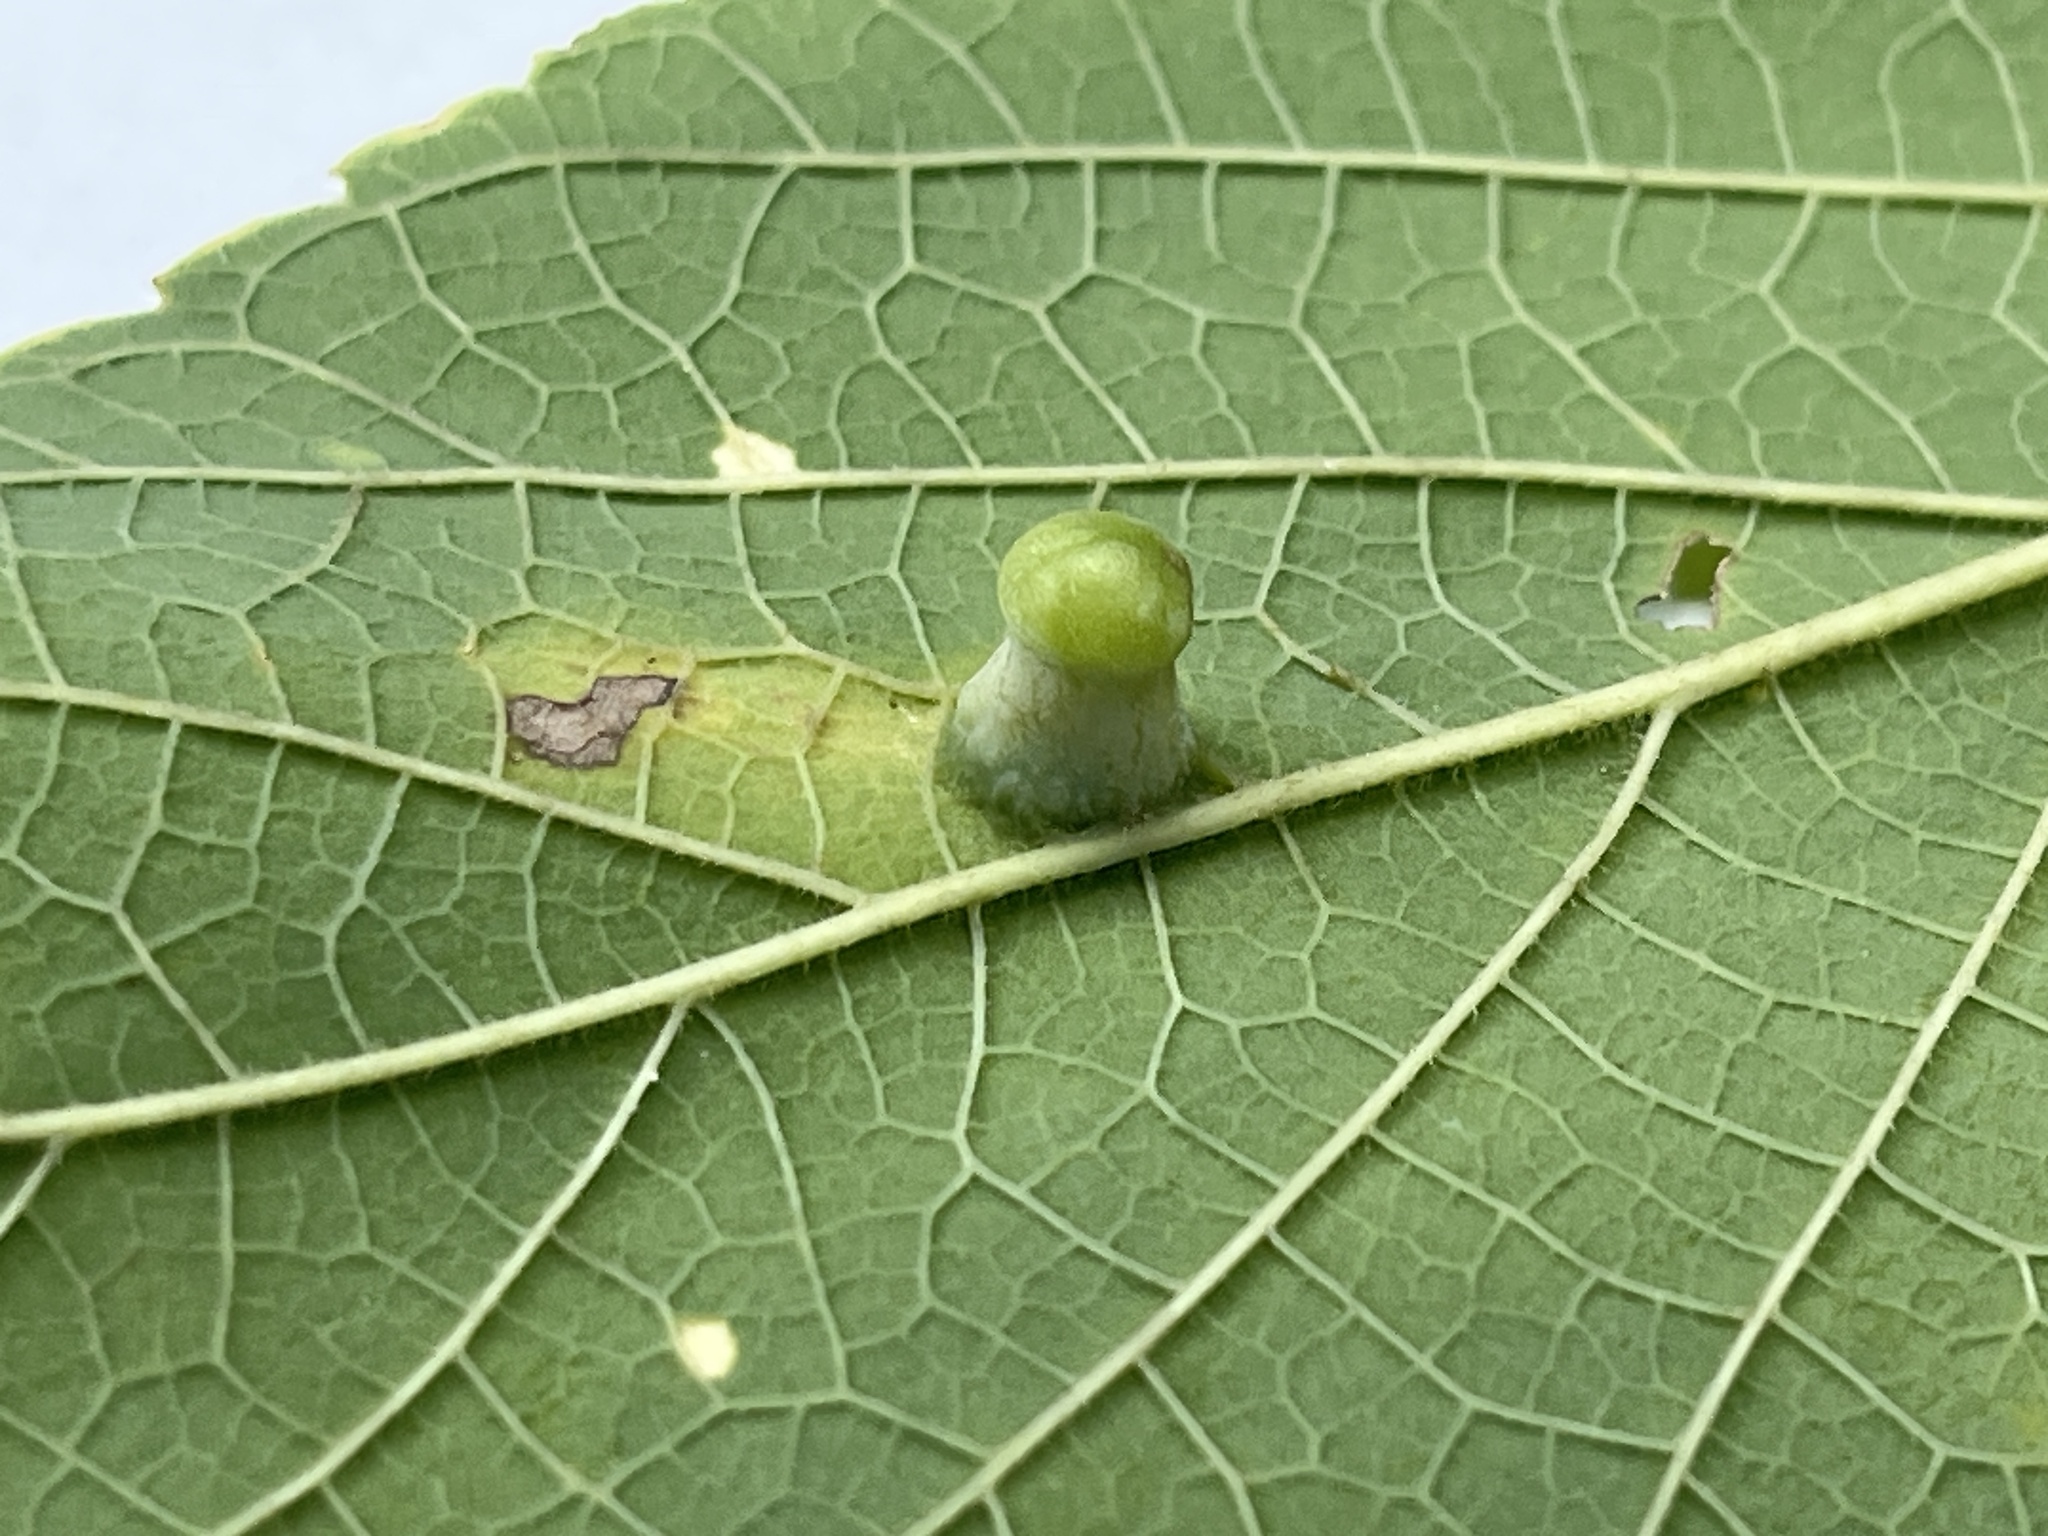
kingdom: Animalia
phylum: Arthropoda
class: Insecta
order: Hemiptera
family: Aphalaridae
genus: Pachypsylla
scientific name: Pachypsylla celtidismamma
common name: Hackberry nipplegall psyllid
